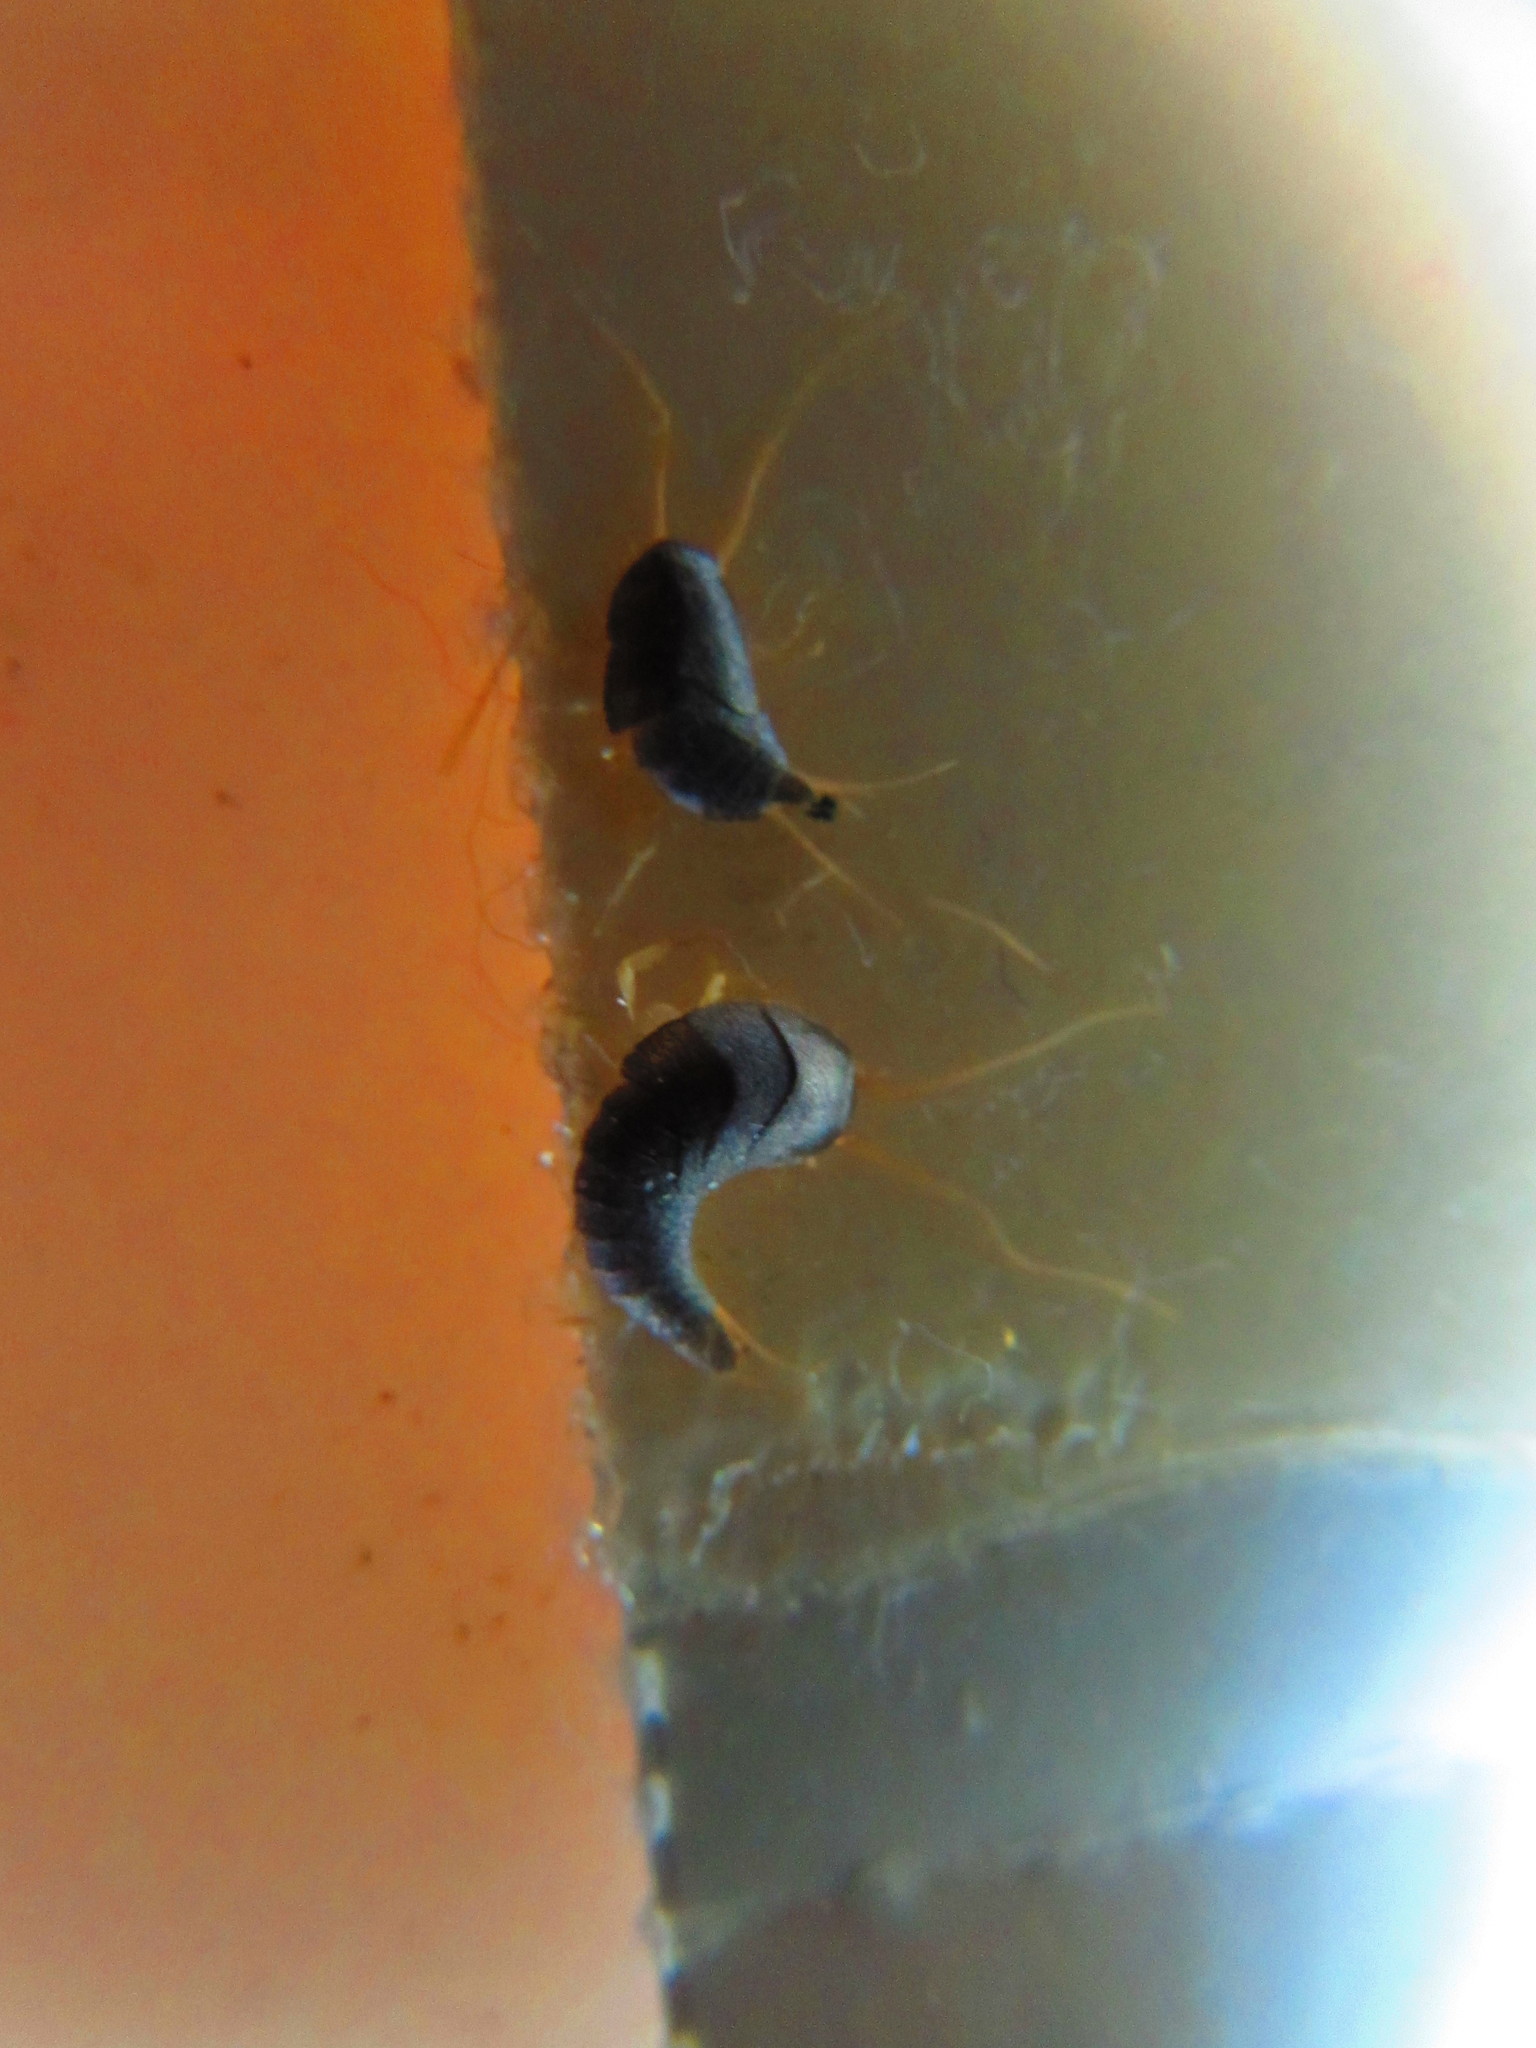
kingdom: Animalia
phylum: Arthropoda
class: Insecta
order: Zygentoma
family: Lepismatidae
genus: Lepisma
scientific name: Lepisma saccharinum
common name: Silverfish
